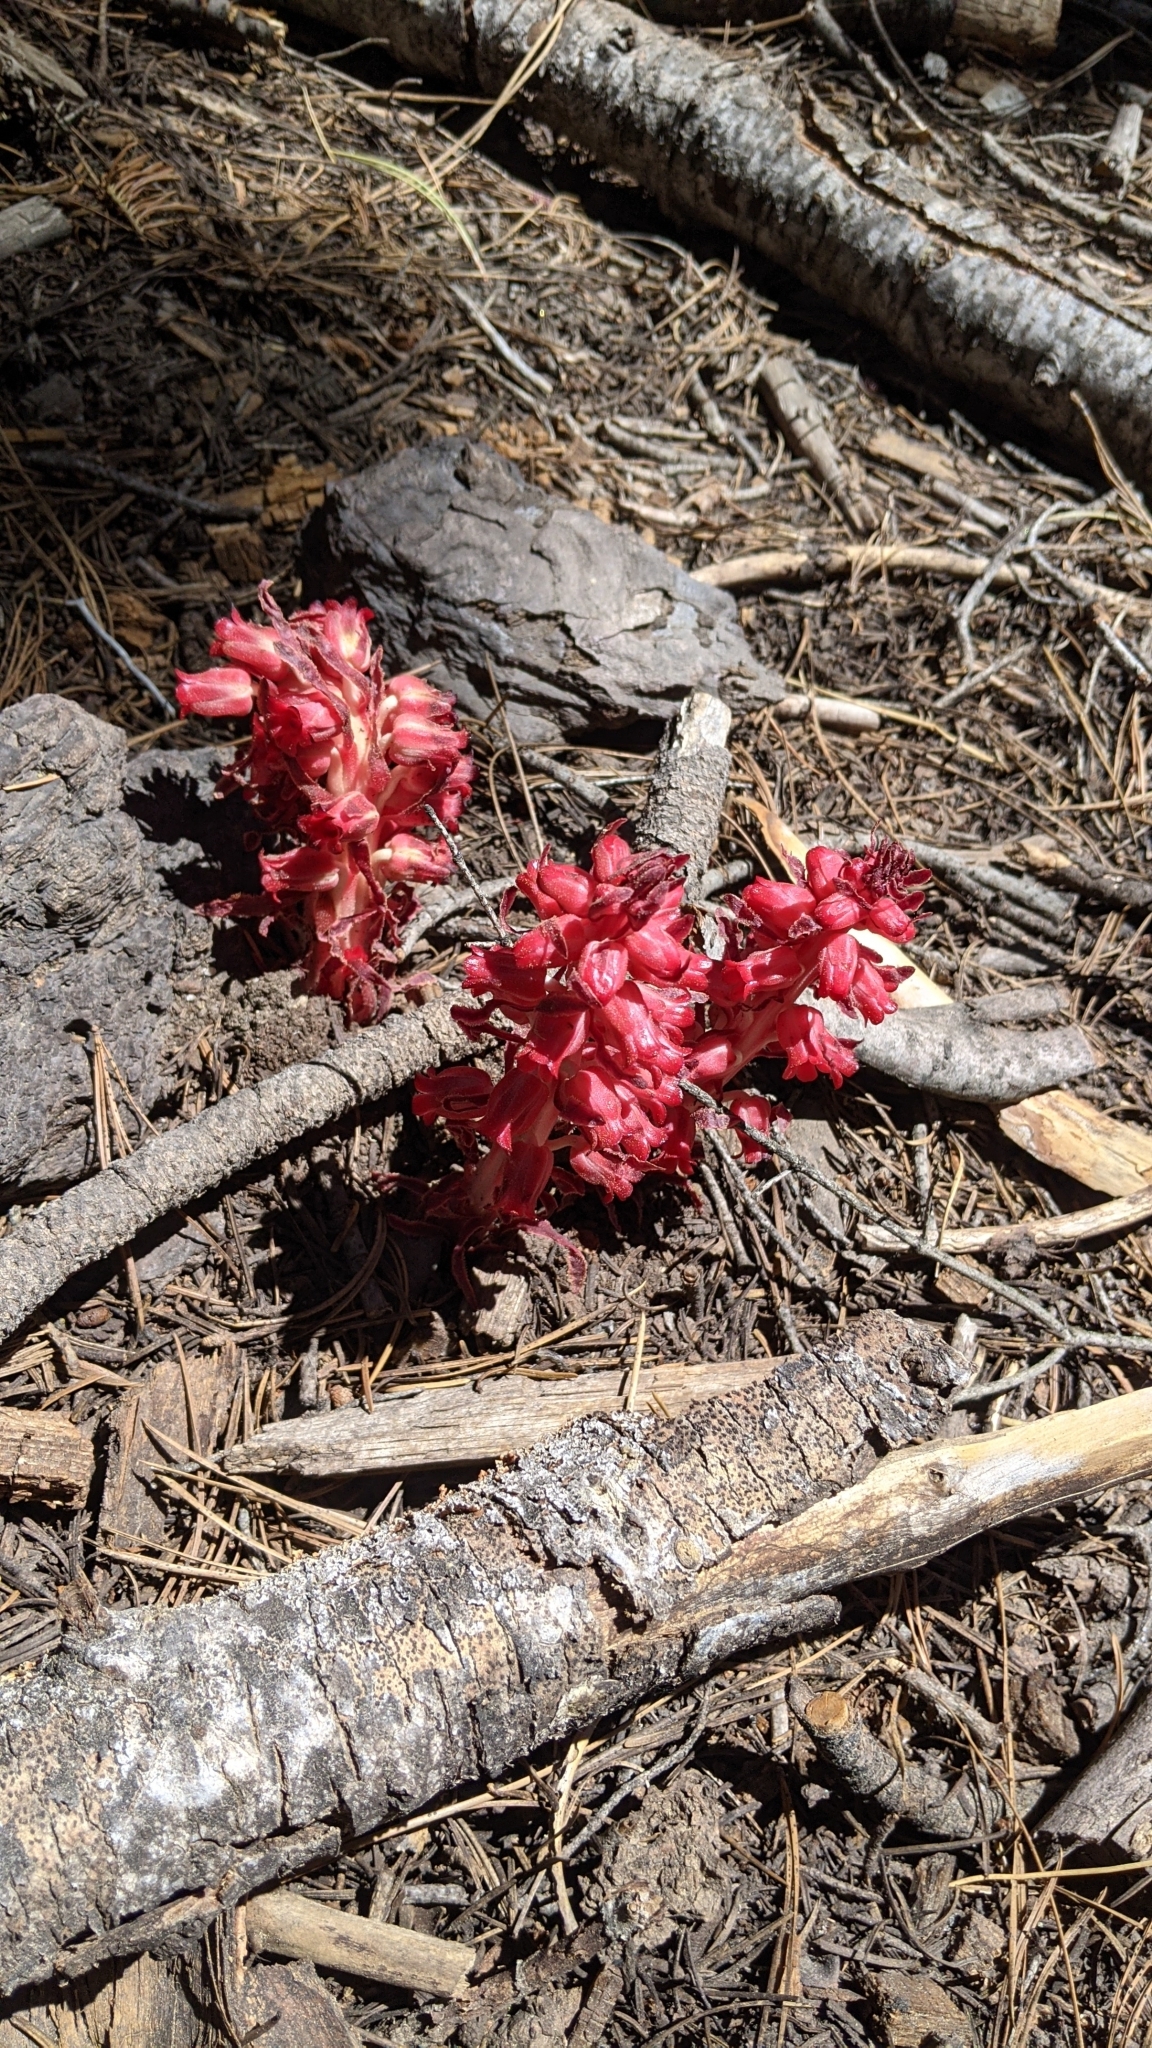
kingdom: Plantae
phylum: Tracheophyta
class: Magnoliopsida
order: Ericales
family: Ericaceae
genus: Sarcodes
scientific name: Sarcodes sanguinea
